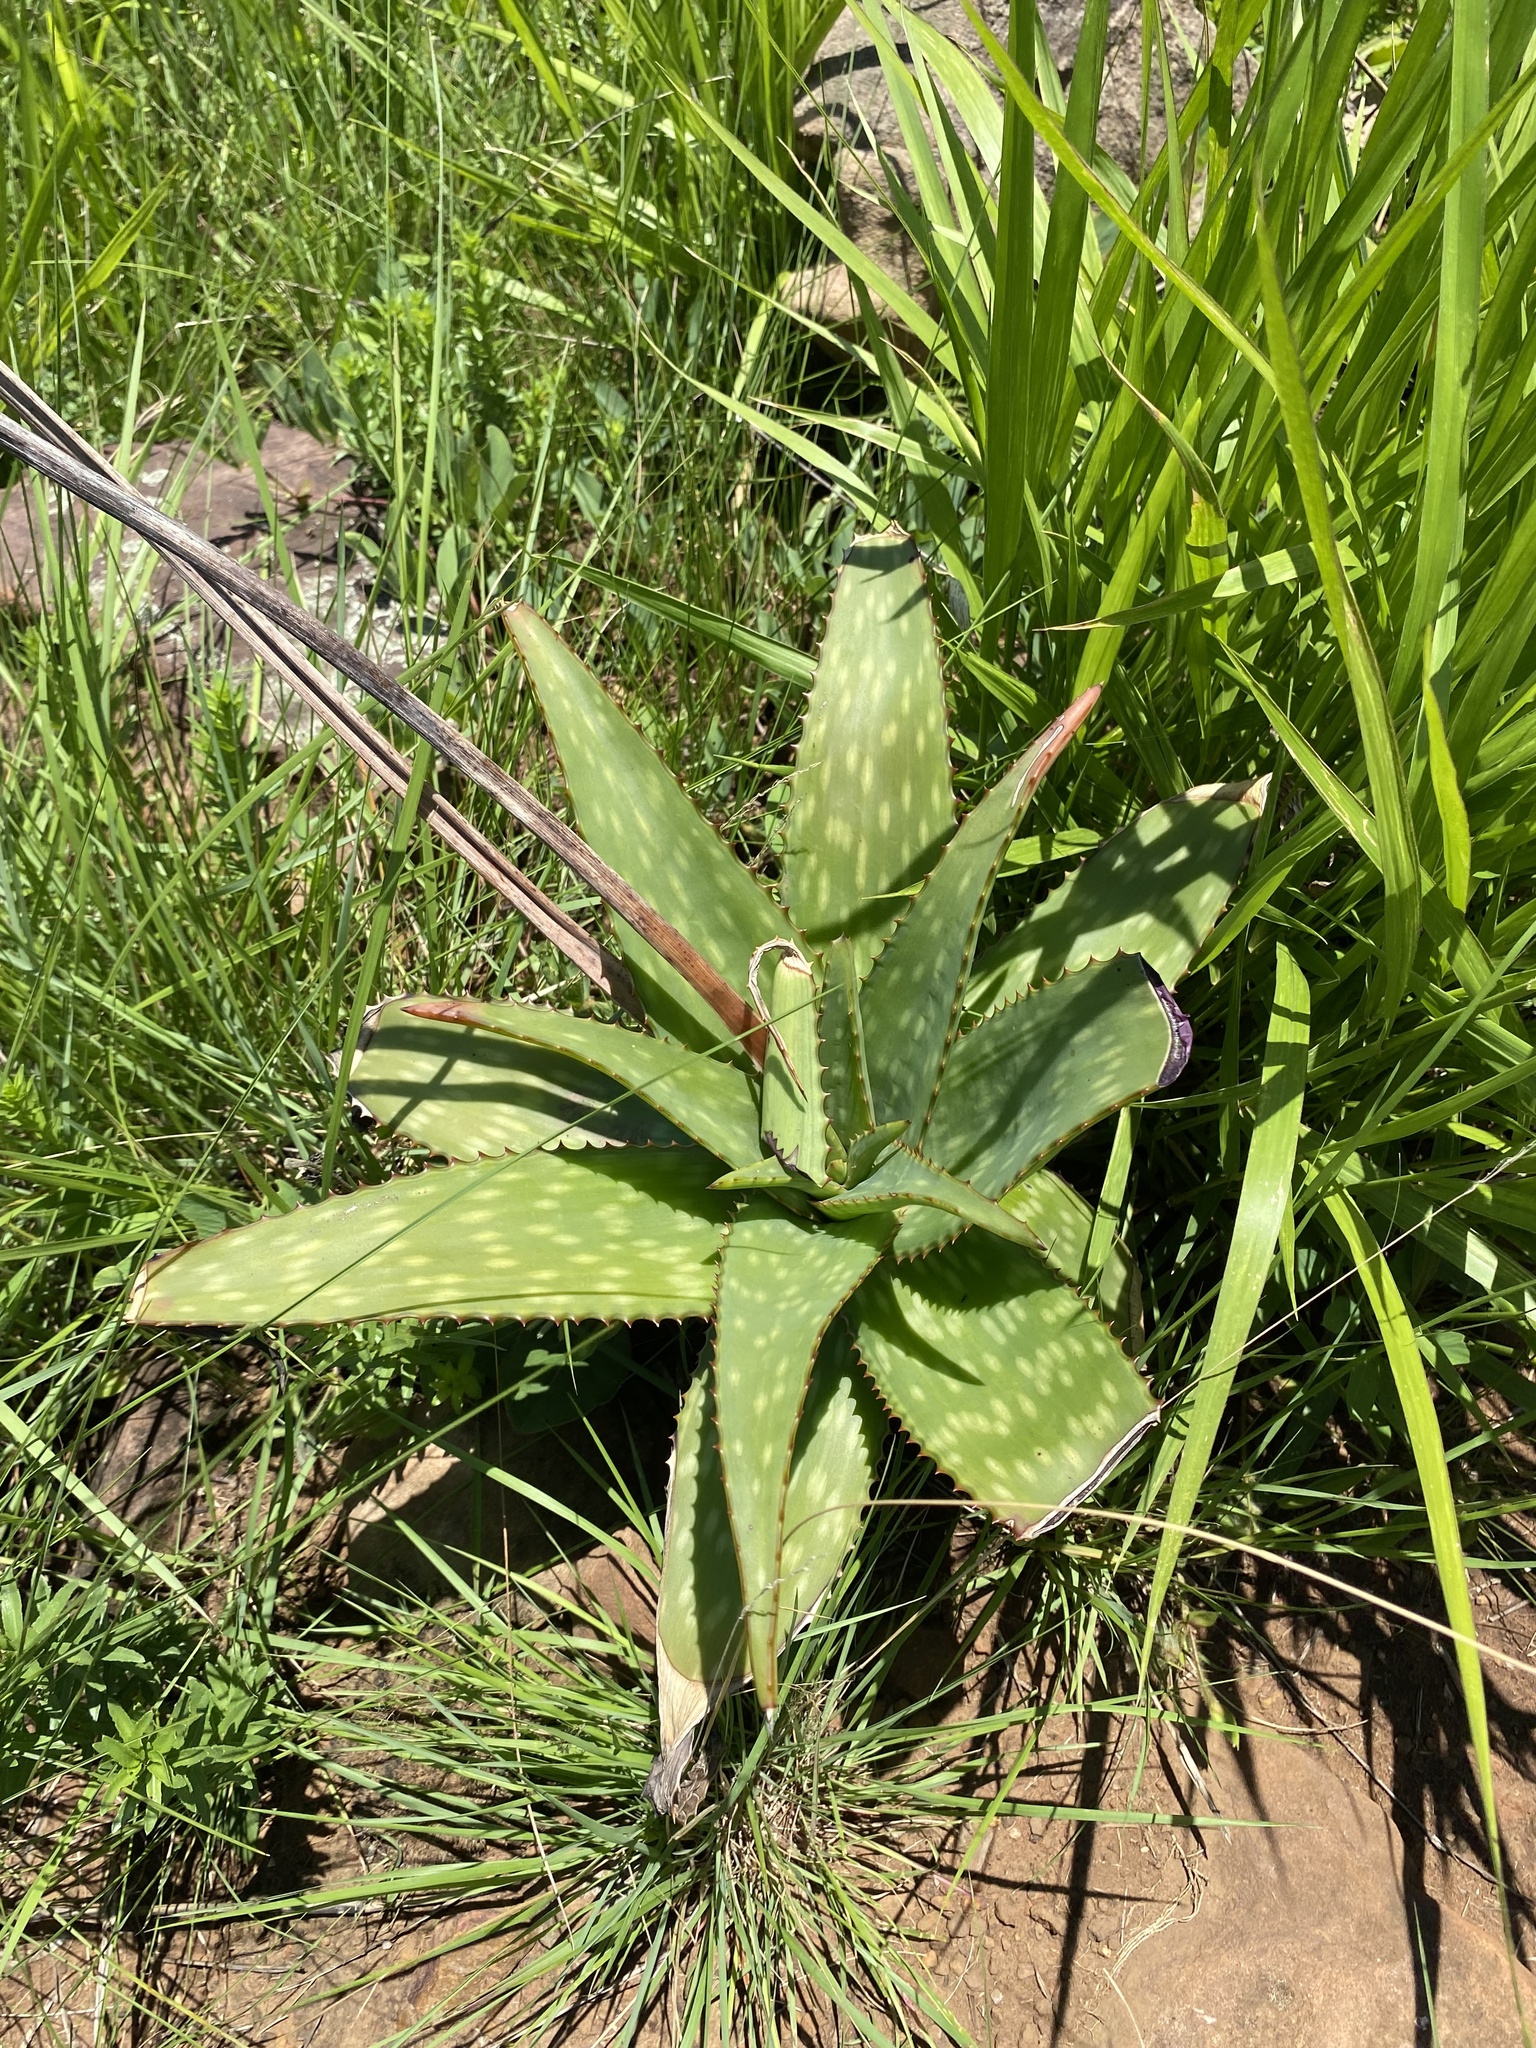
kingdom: Plantae
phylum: Tracheophyta
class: Liliopsida
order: Asparagales
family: Asphodelaceae
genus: Aloe
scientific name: Aloe maculata
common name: Broadleaf aloe
